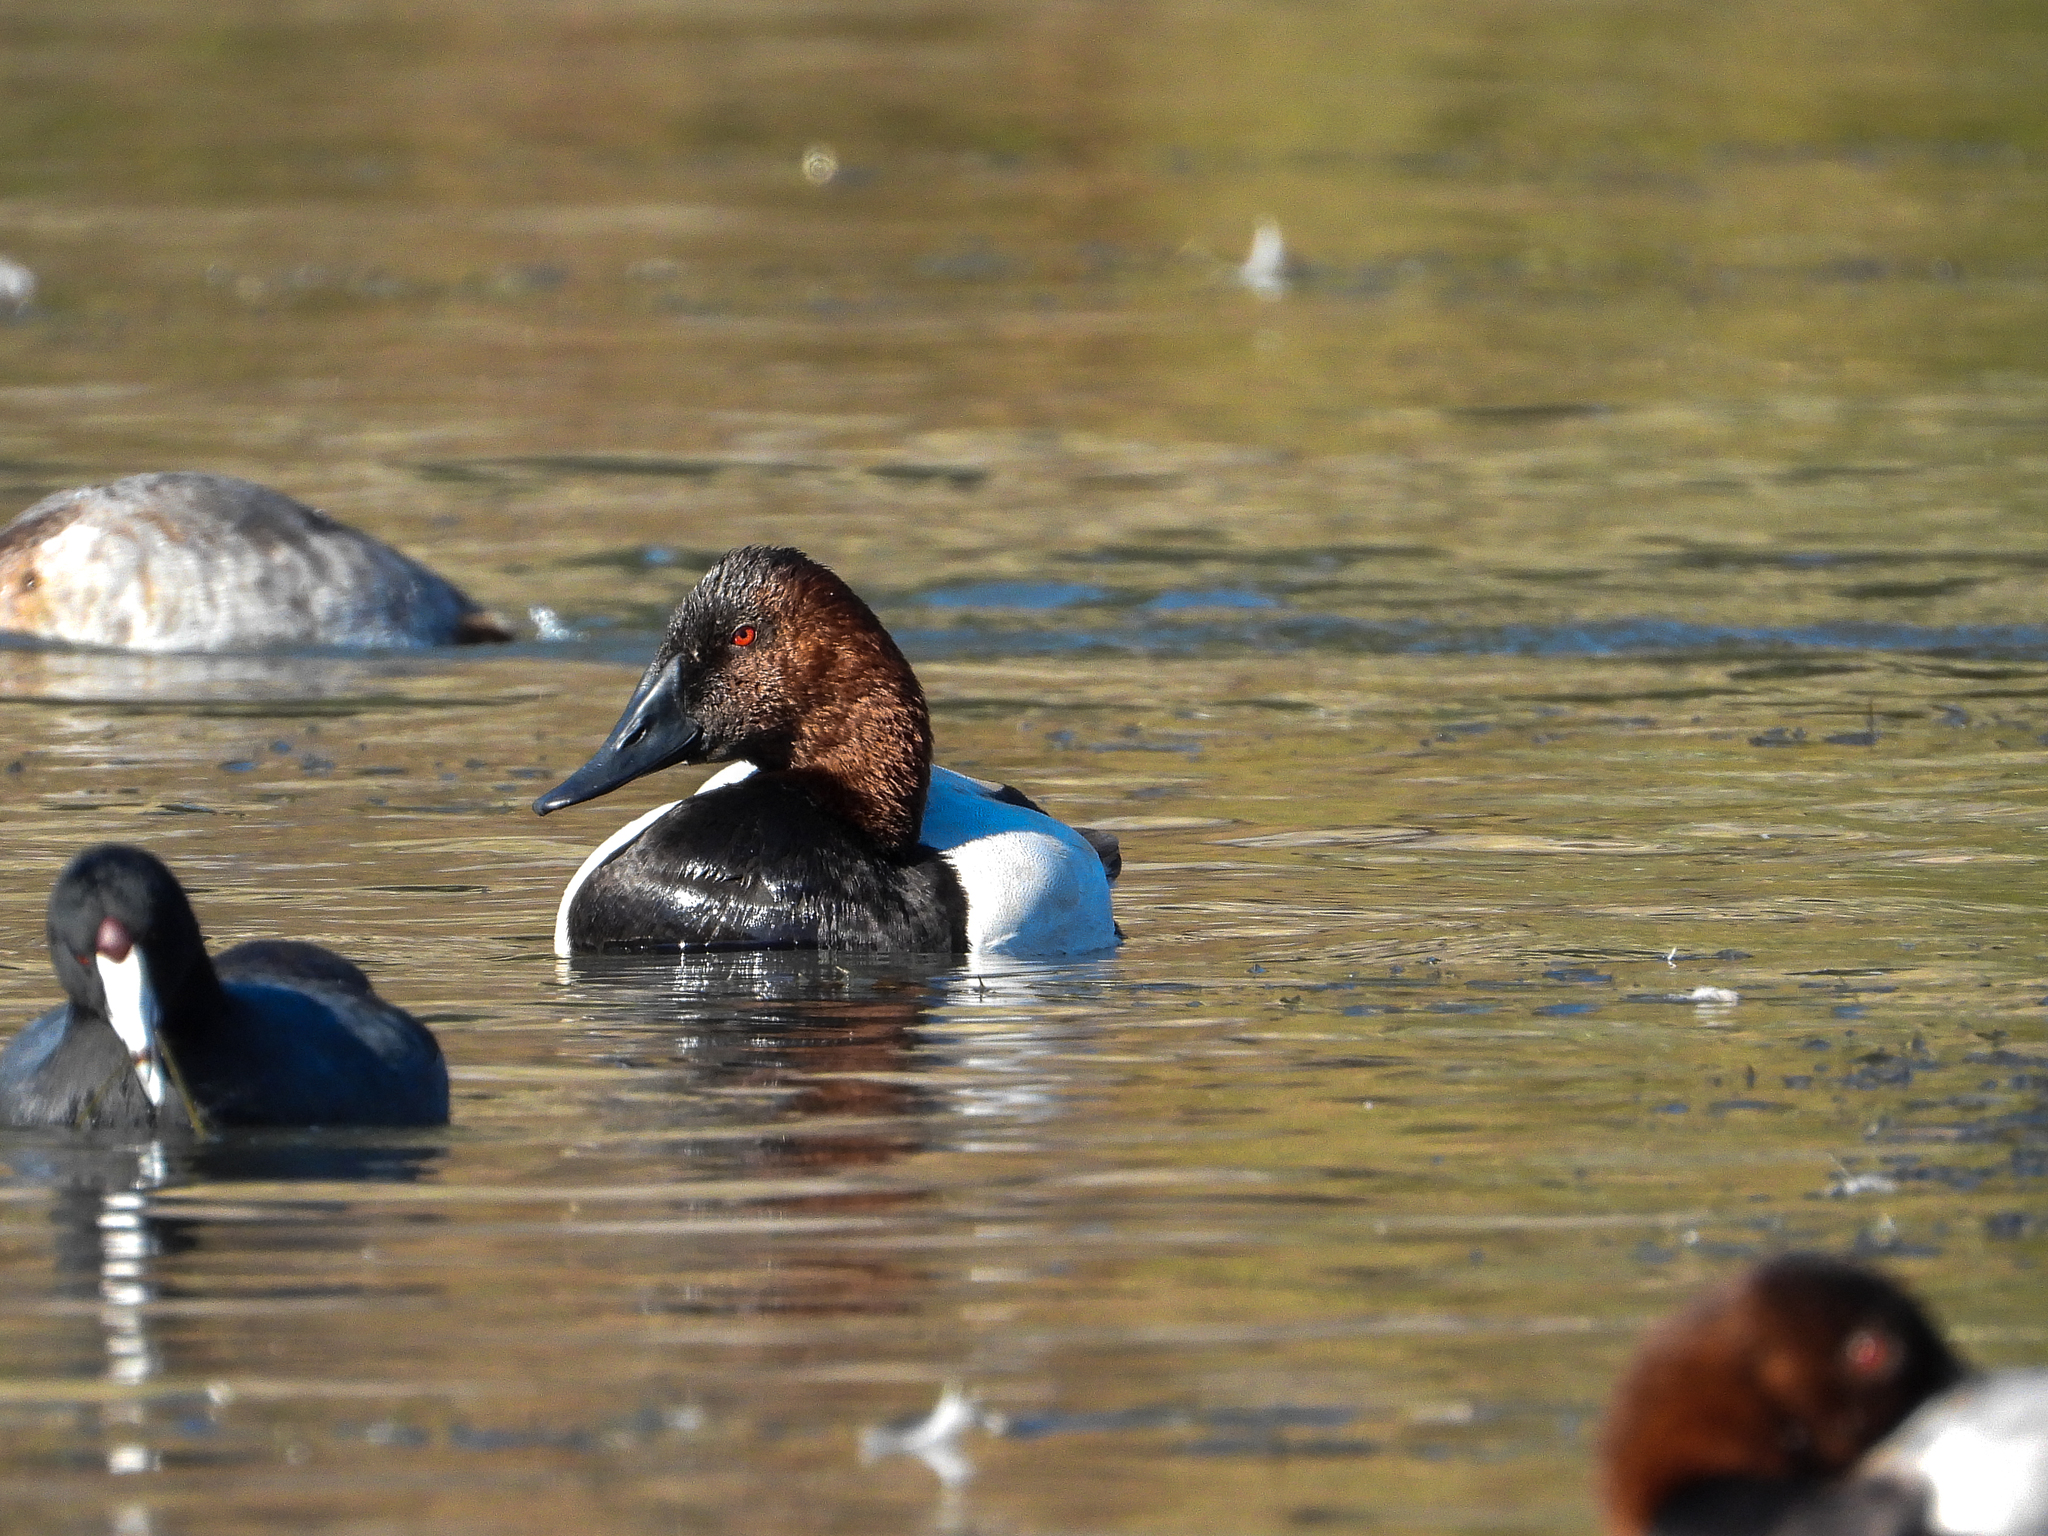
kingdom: Animalia
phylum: Chordata
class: Aves
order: Anseriformes
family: Anatidae
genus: Aythya
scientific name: Aythya valisineria
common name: Canvasback
